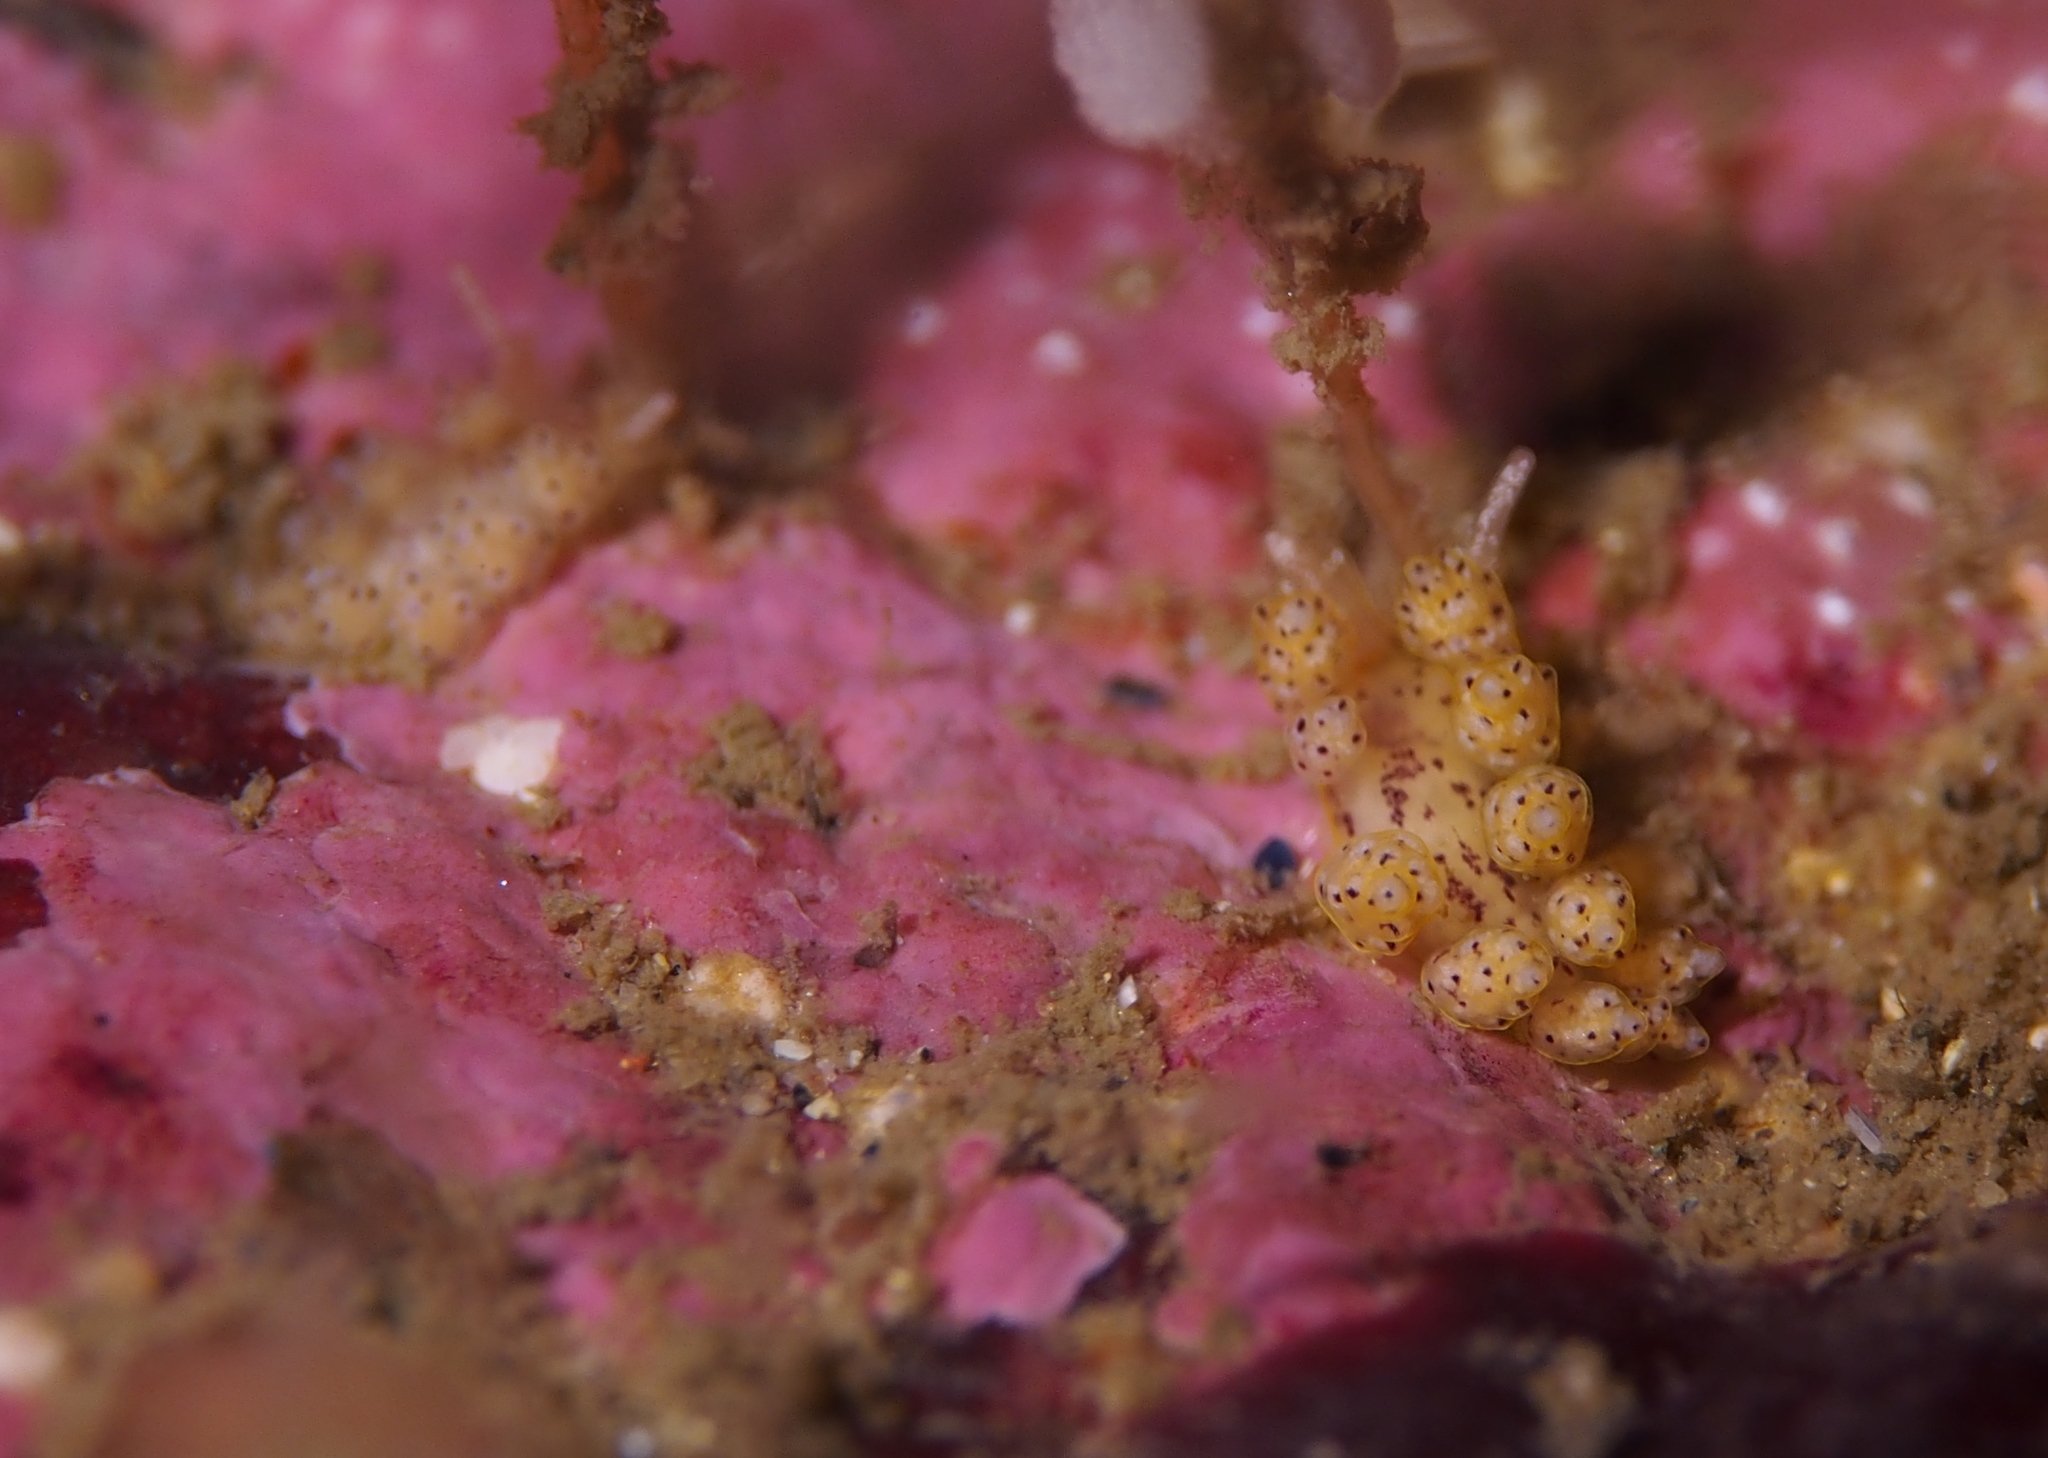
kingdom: Animalia
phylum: Mollusca
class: Gastropoda
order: Nudibranchia
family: Dotidae
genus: Doto
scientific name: Doto dunnei
